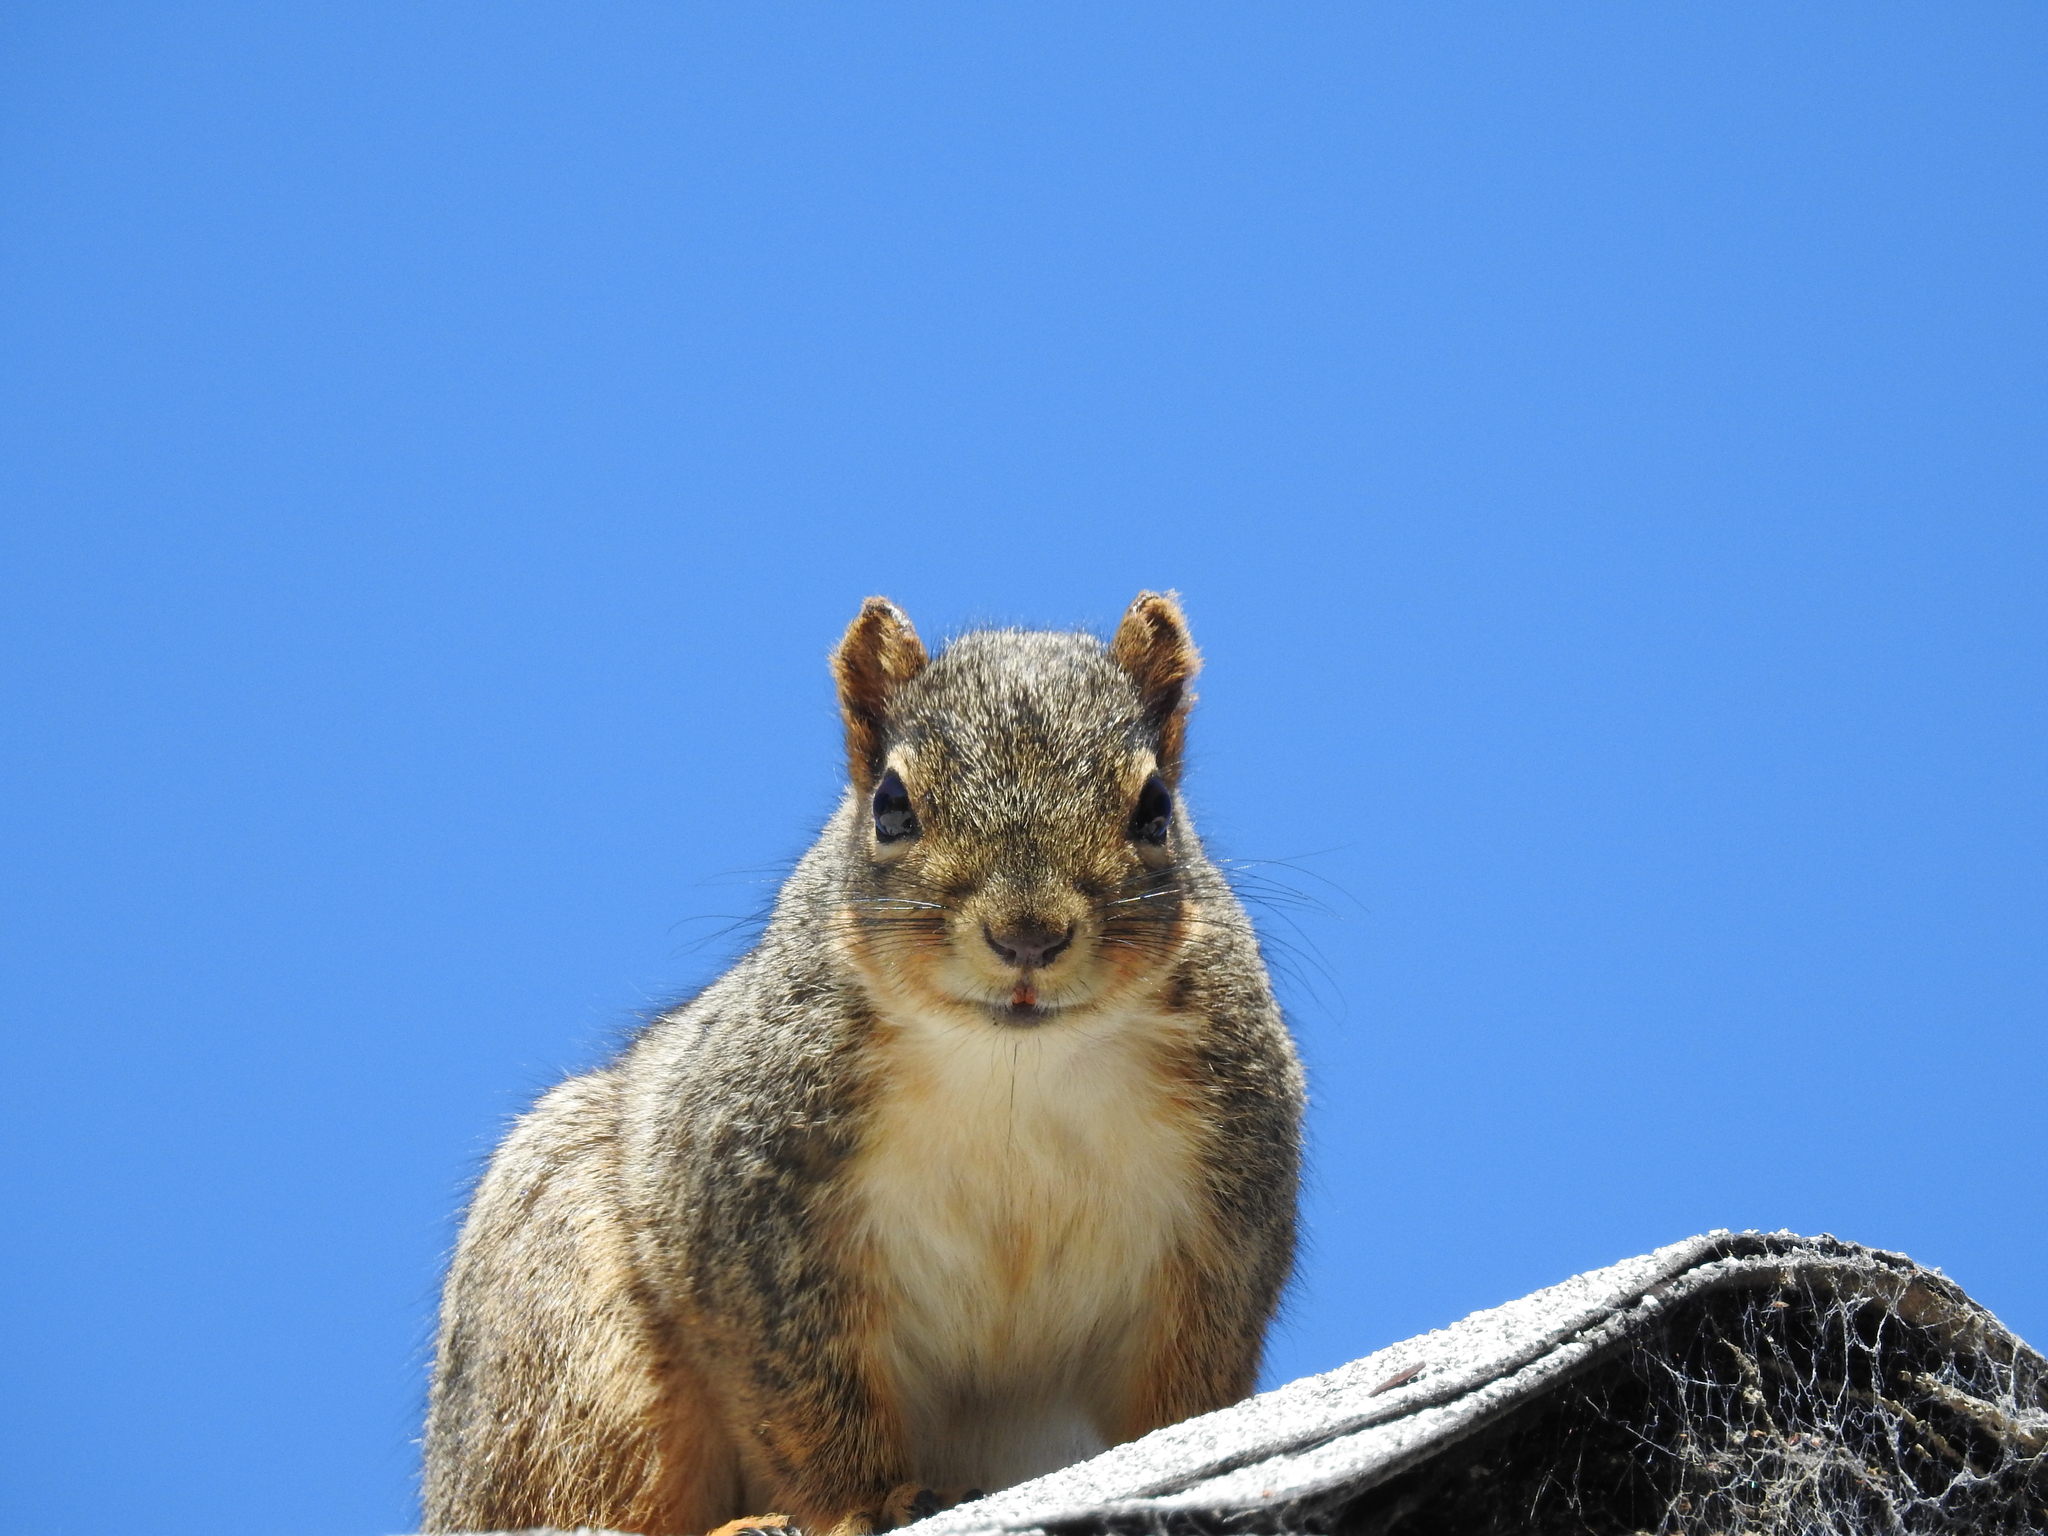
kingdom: Animalia
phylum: Chordata
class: Mammalia
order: Rodentia
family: Sciuridae
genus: Sciurus
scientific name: Sciurus niger
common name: Fox squirrel
